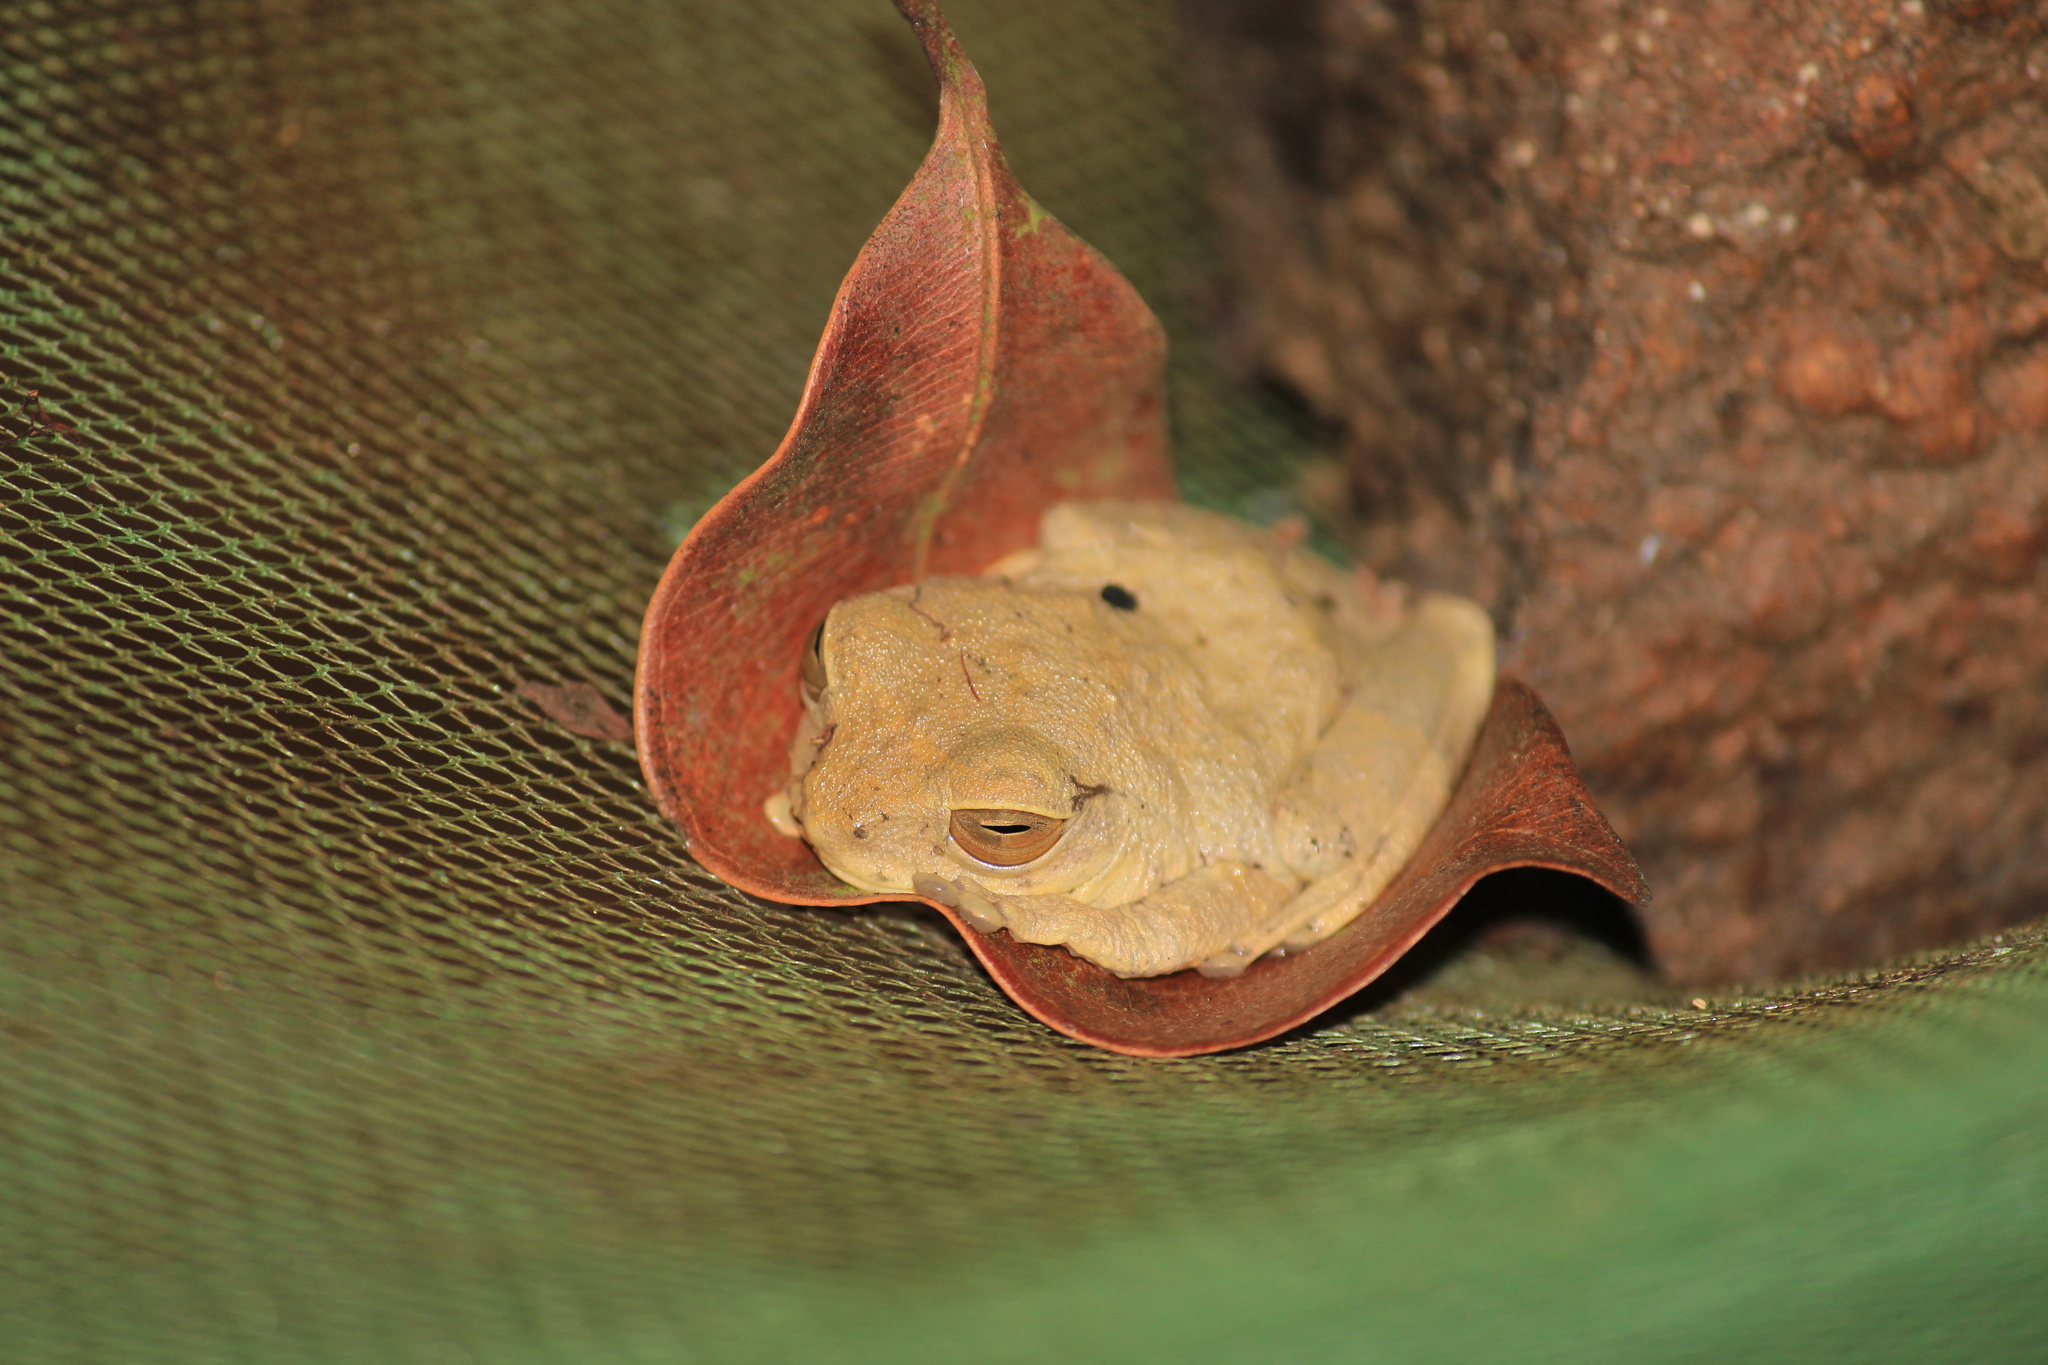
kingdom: Animalia
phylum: Chordata
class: Amphibia
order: Anura
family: Rhacophoridae
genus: Raorchestes
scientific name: Raorchestes ponmudi
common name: Large ponmudi bush frog
